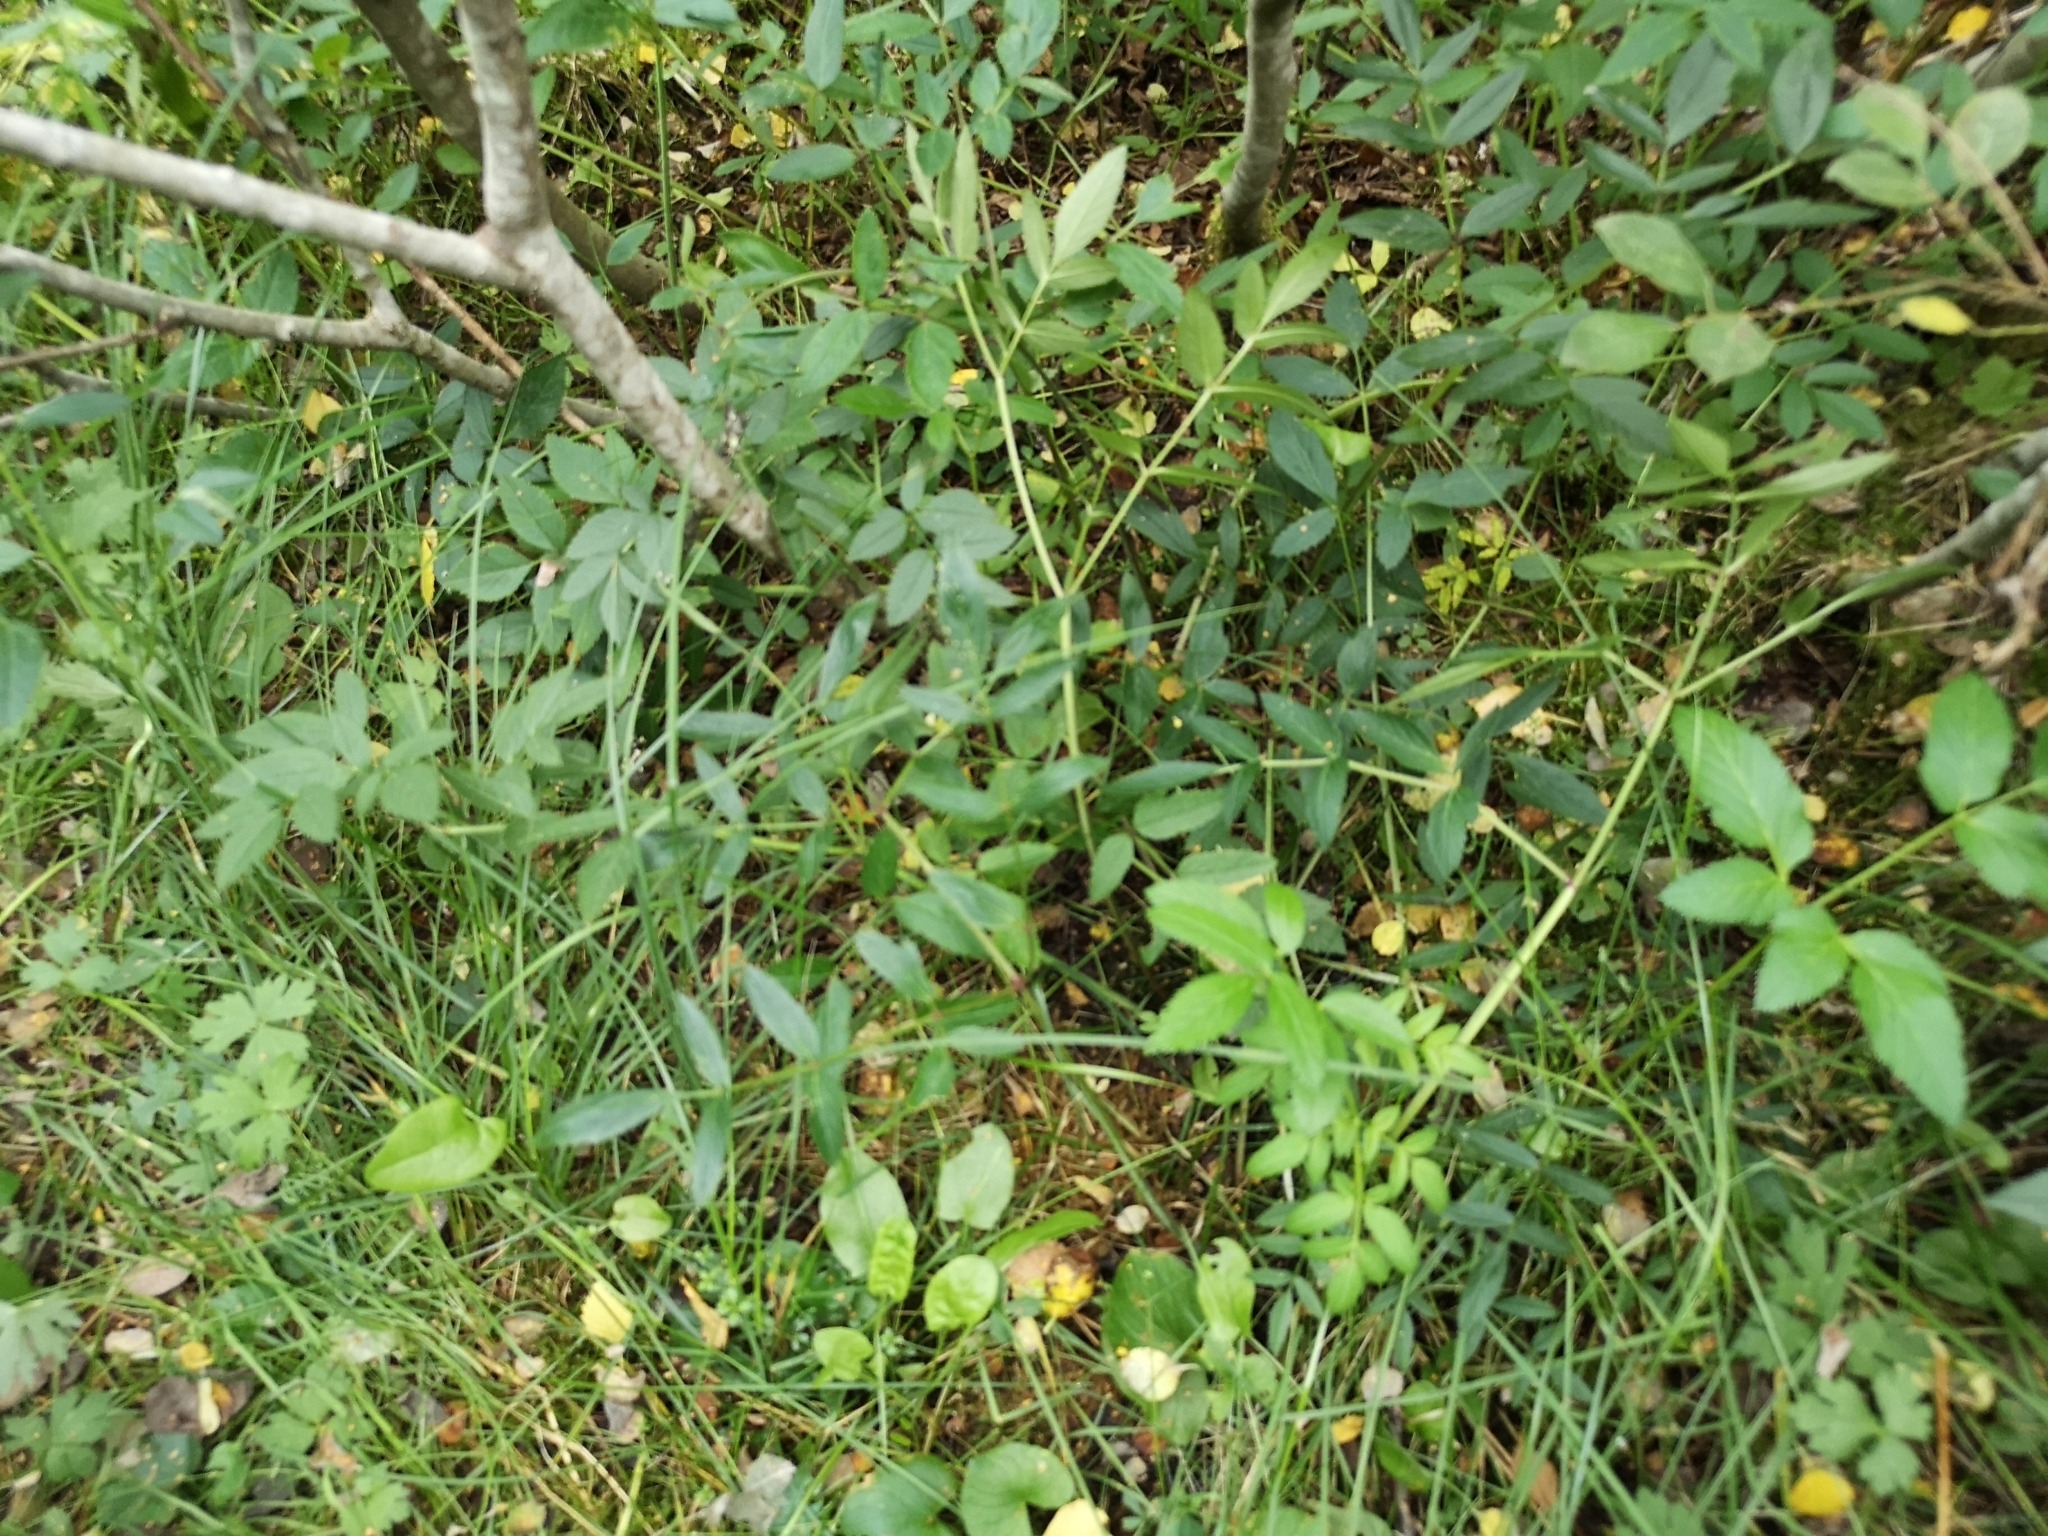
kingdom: Plantae
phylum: Tracheophyta
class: Magnoliopsida
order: Apiales
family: Apiaceae
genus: Angelica
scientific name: Angelica sylvestris
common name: Wild angelica
